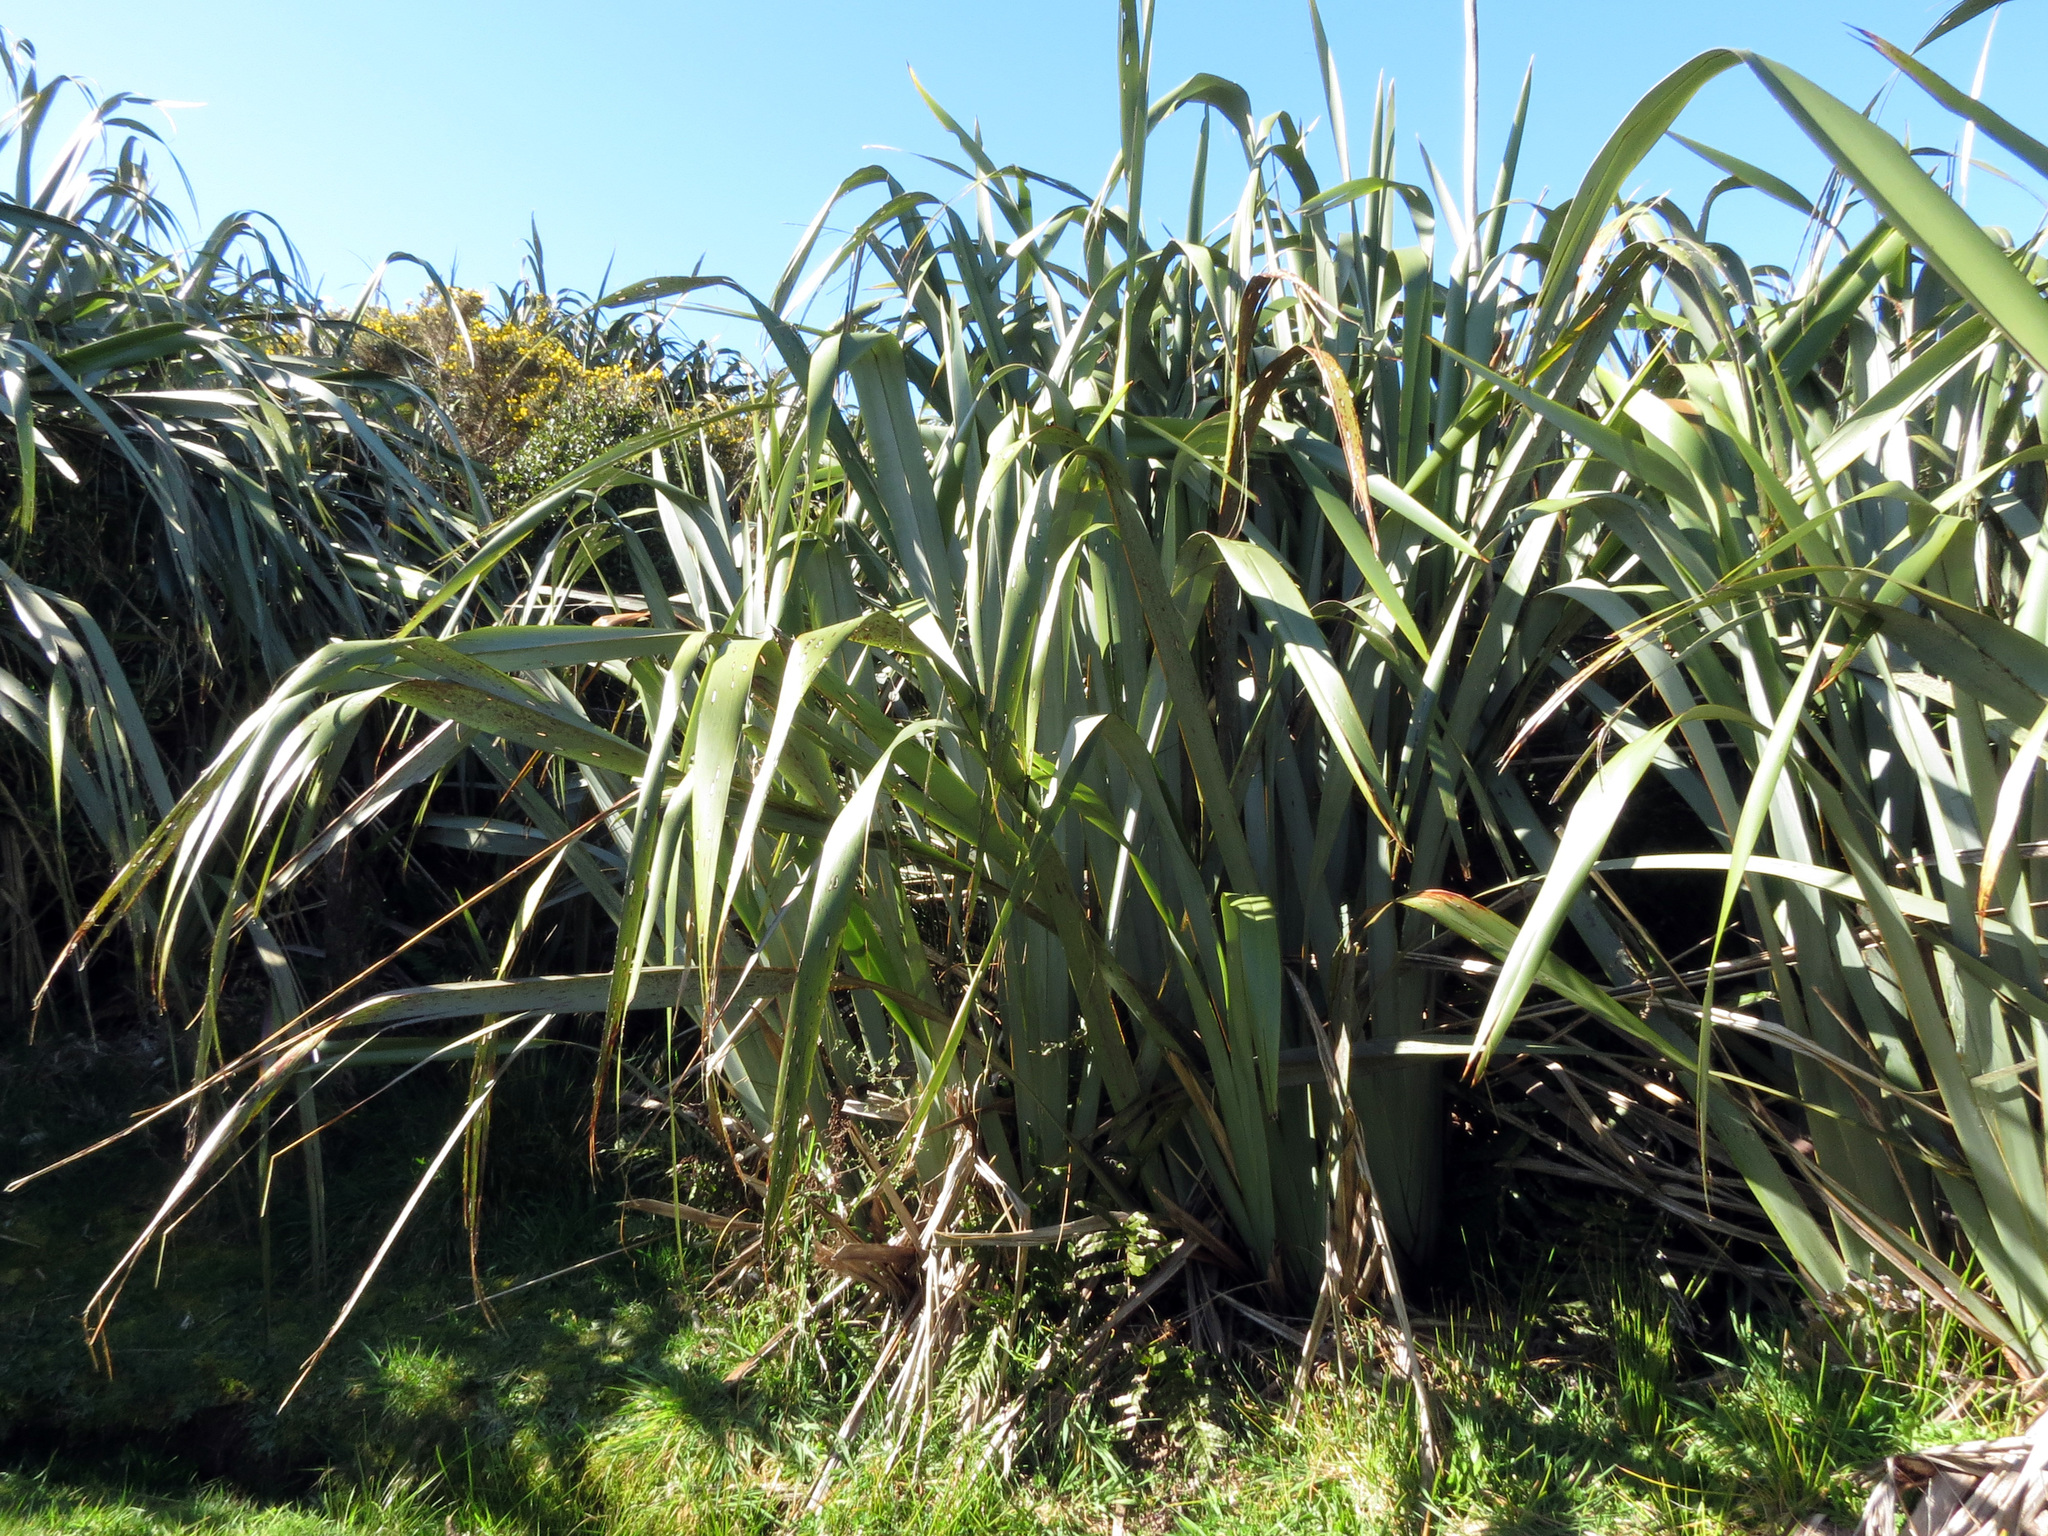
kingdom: Plantae
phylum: Tracheophyta
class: Liliopsida
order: Asparagales
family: Asphodelaceae
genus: Phormium
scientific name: Phormium tenax
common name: New zealand flax
